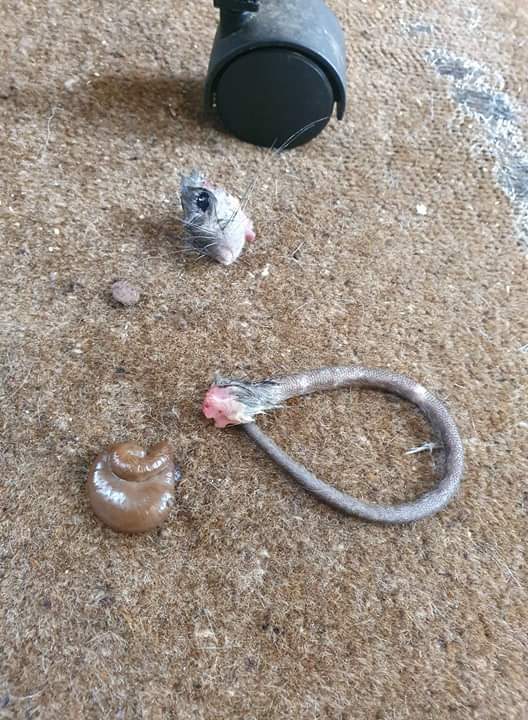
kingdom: Animalia
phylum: Chordata
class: Mammalia
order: Rodentia
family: Muridae
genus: Rattus
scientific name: Rattus norvegicus
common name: Brown rat
